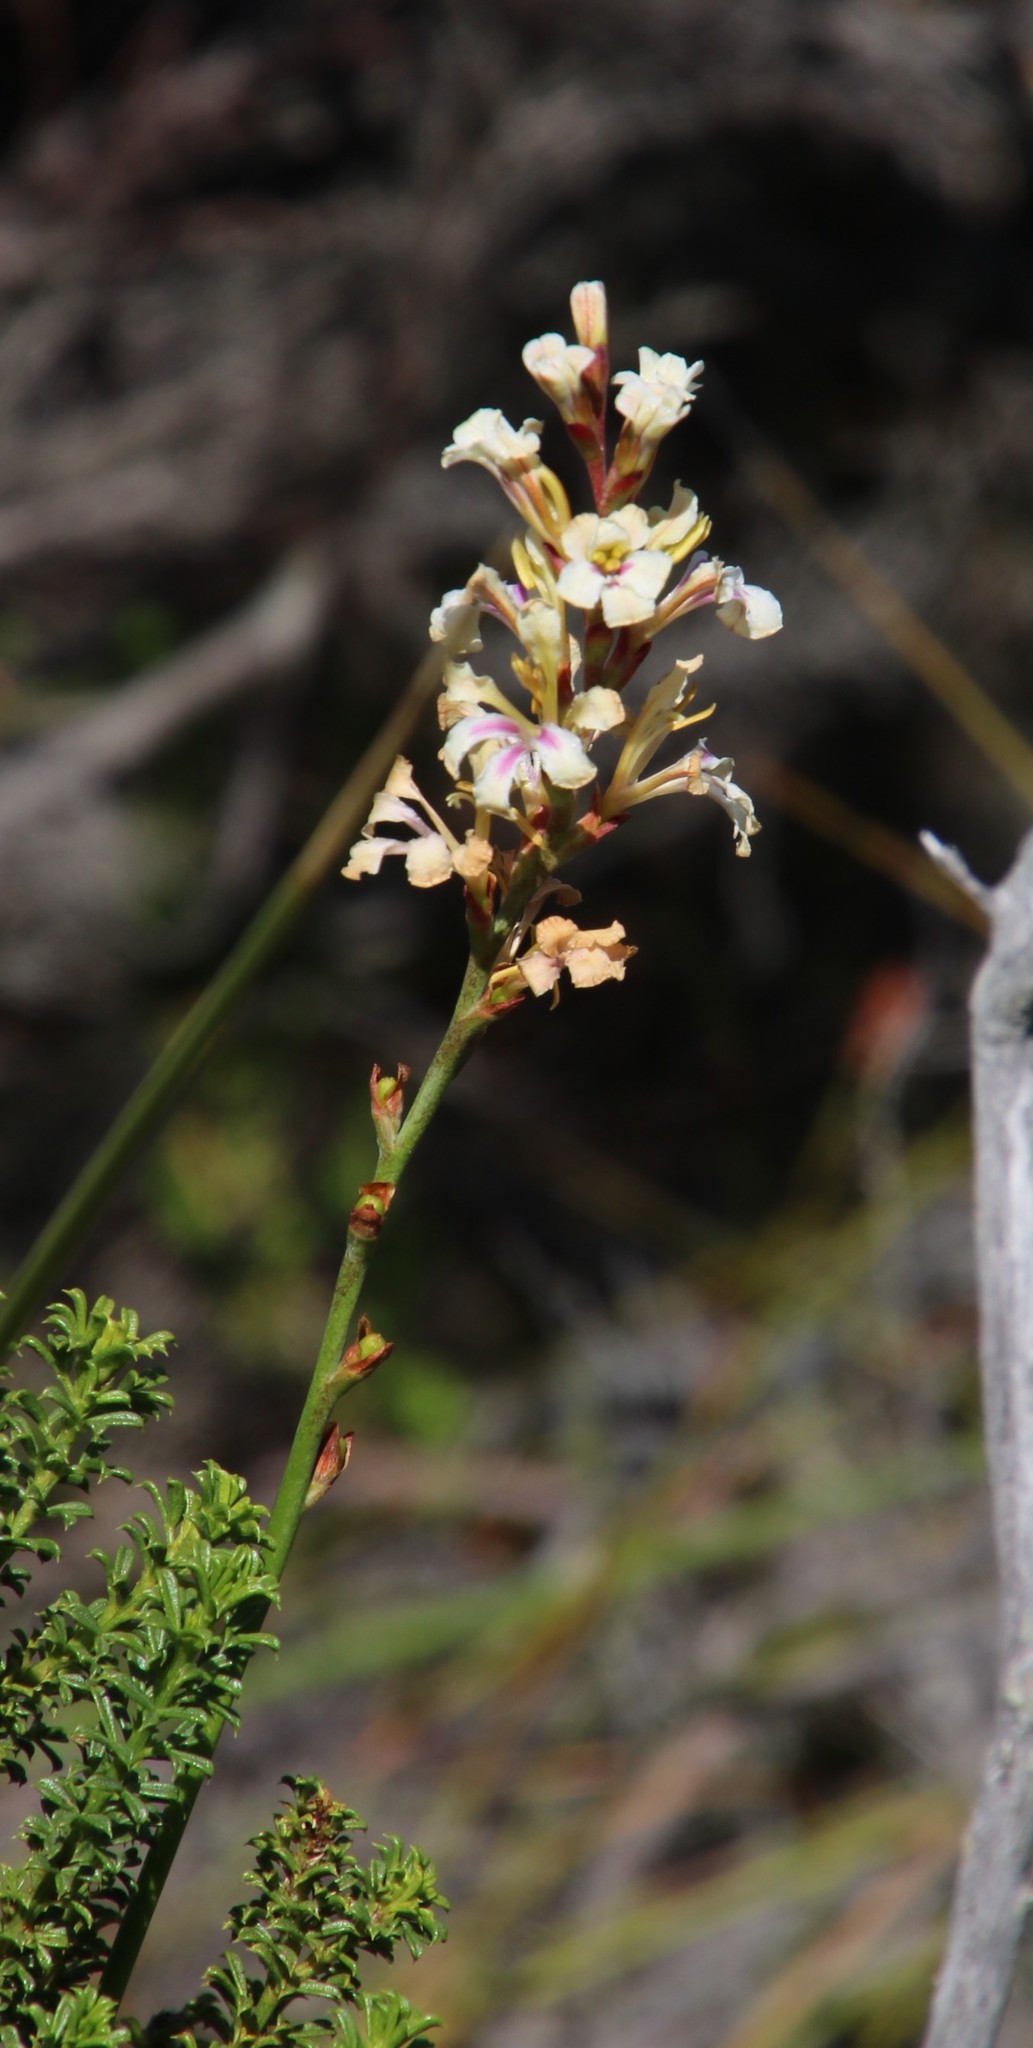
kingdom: Plantae
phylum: Tracheophyta
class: Liliopsida
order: Asparagales
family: Iridaceae
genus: Tritoniopsis
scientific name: Tritoniopsis unguicularis
